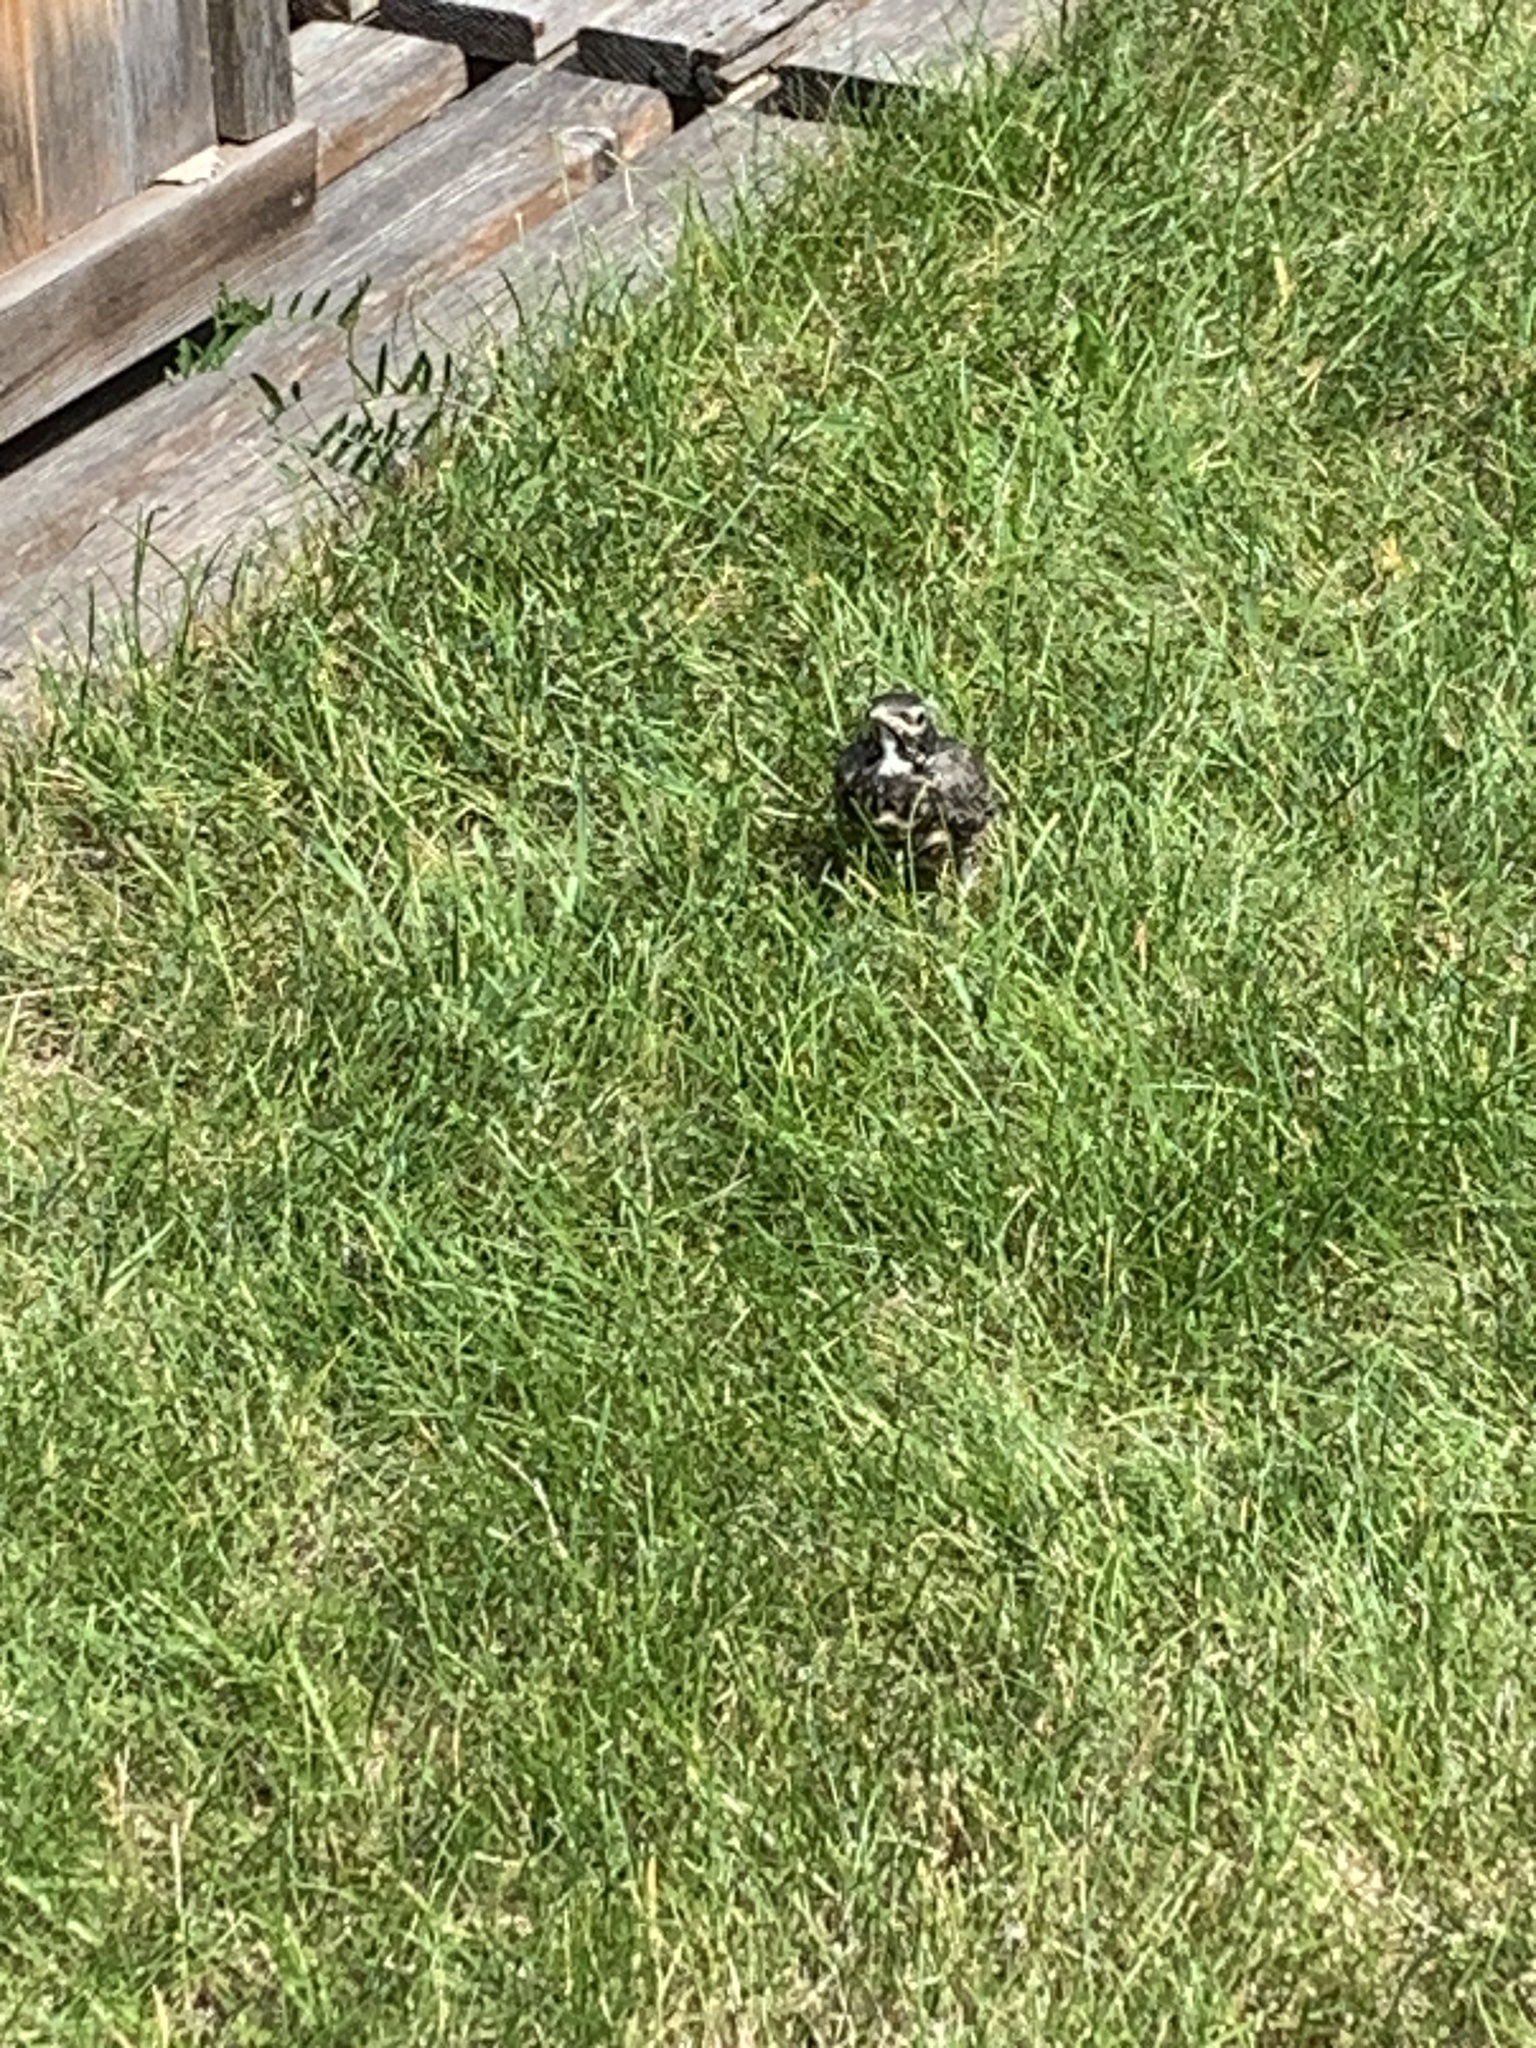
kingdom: Animalia
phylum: Chordata
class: Aves
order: Passeriformes
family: Turdidae
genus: Turdus
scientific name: Turdus migratorius
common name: American robin
